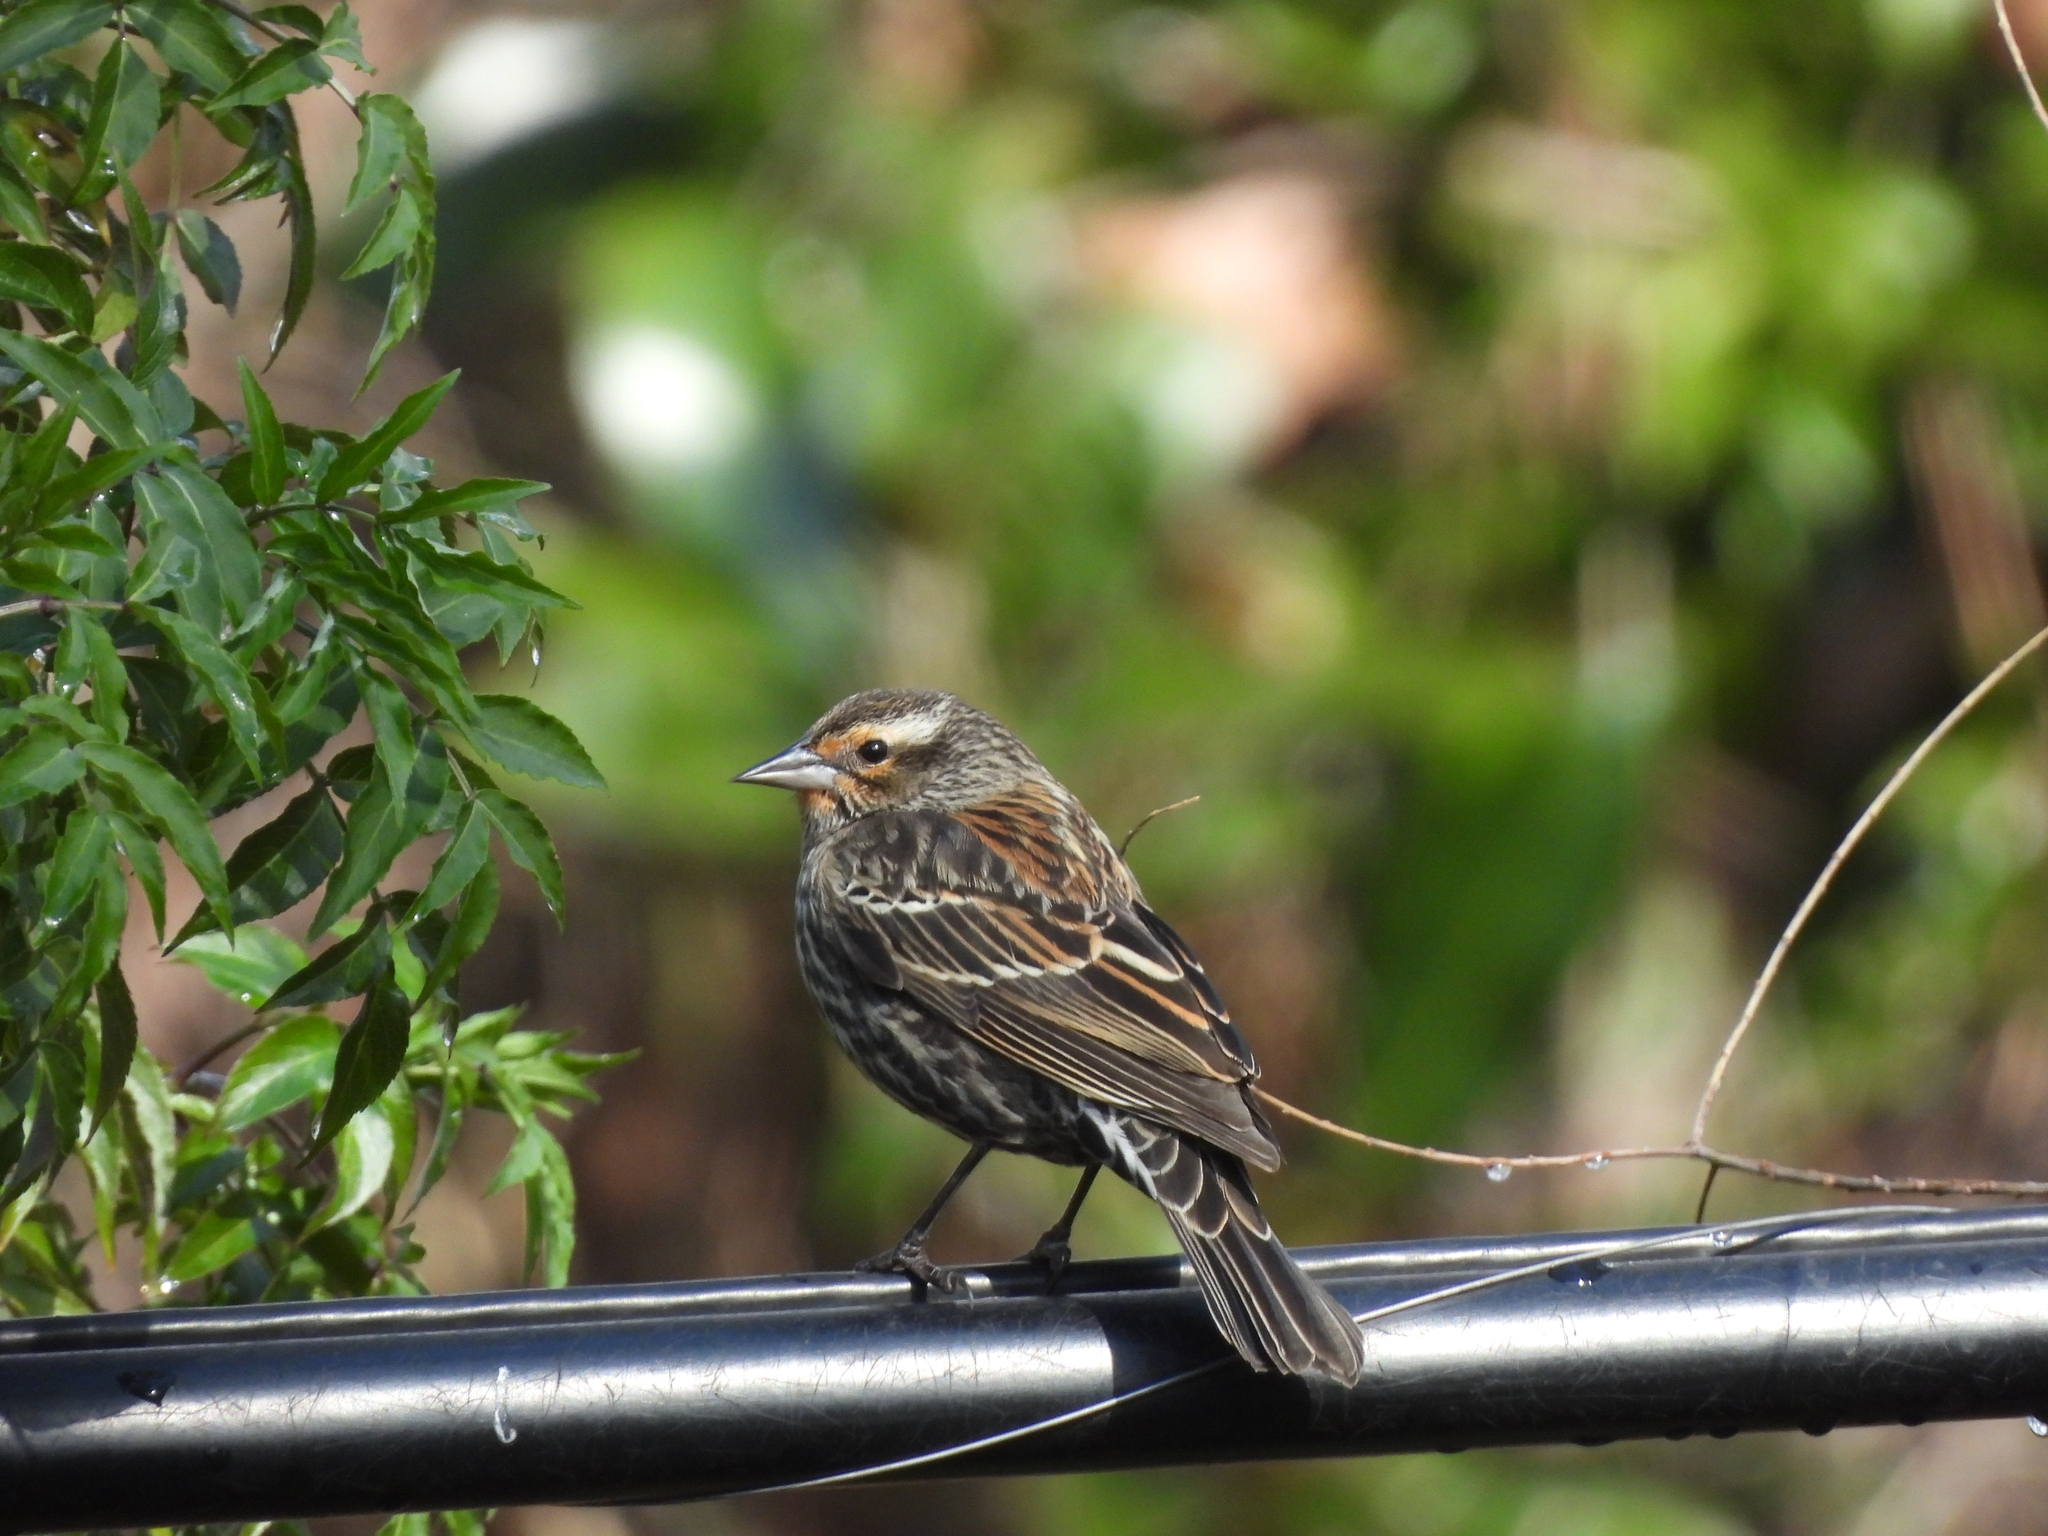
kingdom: Animalia
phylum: Chordata
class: Aves
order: Passeriformes
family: Icteridae
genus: Agelaius
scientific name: Agelaius phoeniceus
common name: Red-winged blackbird
